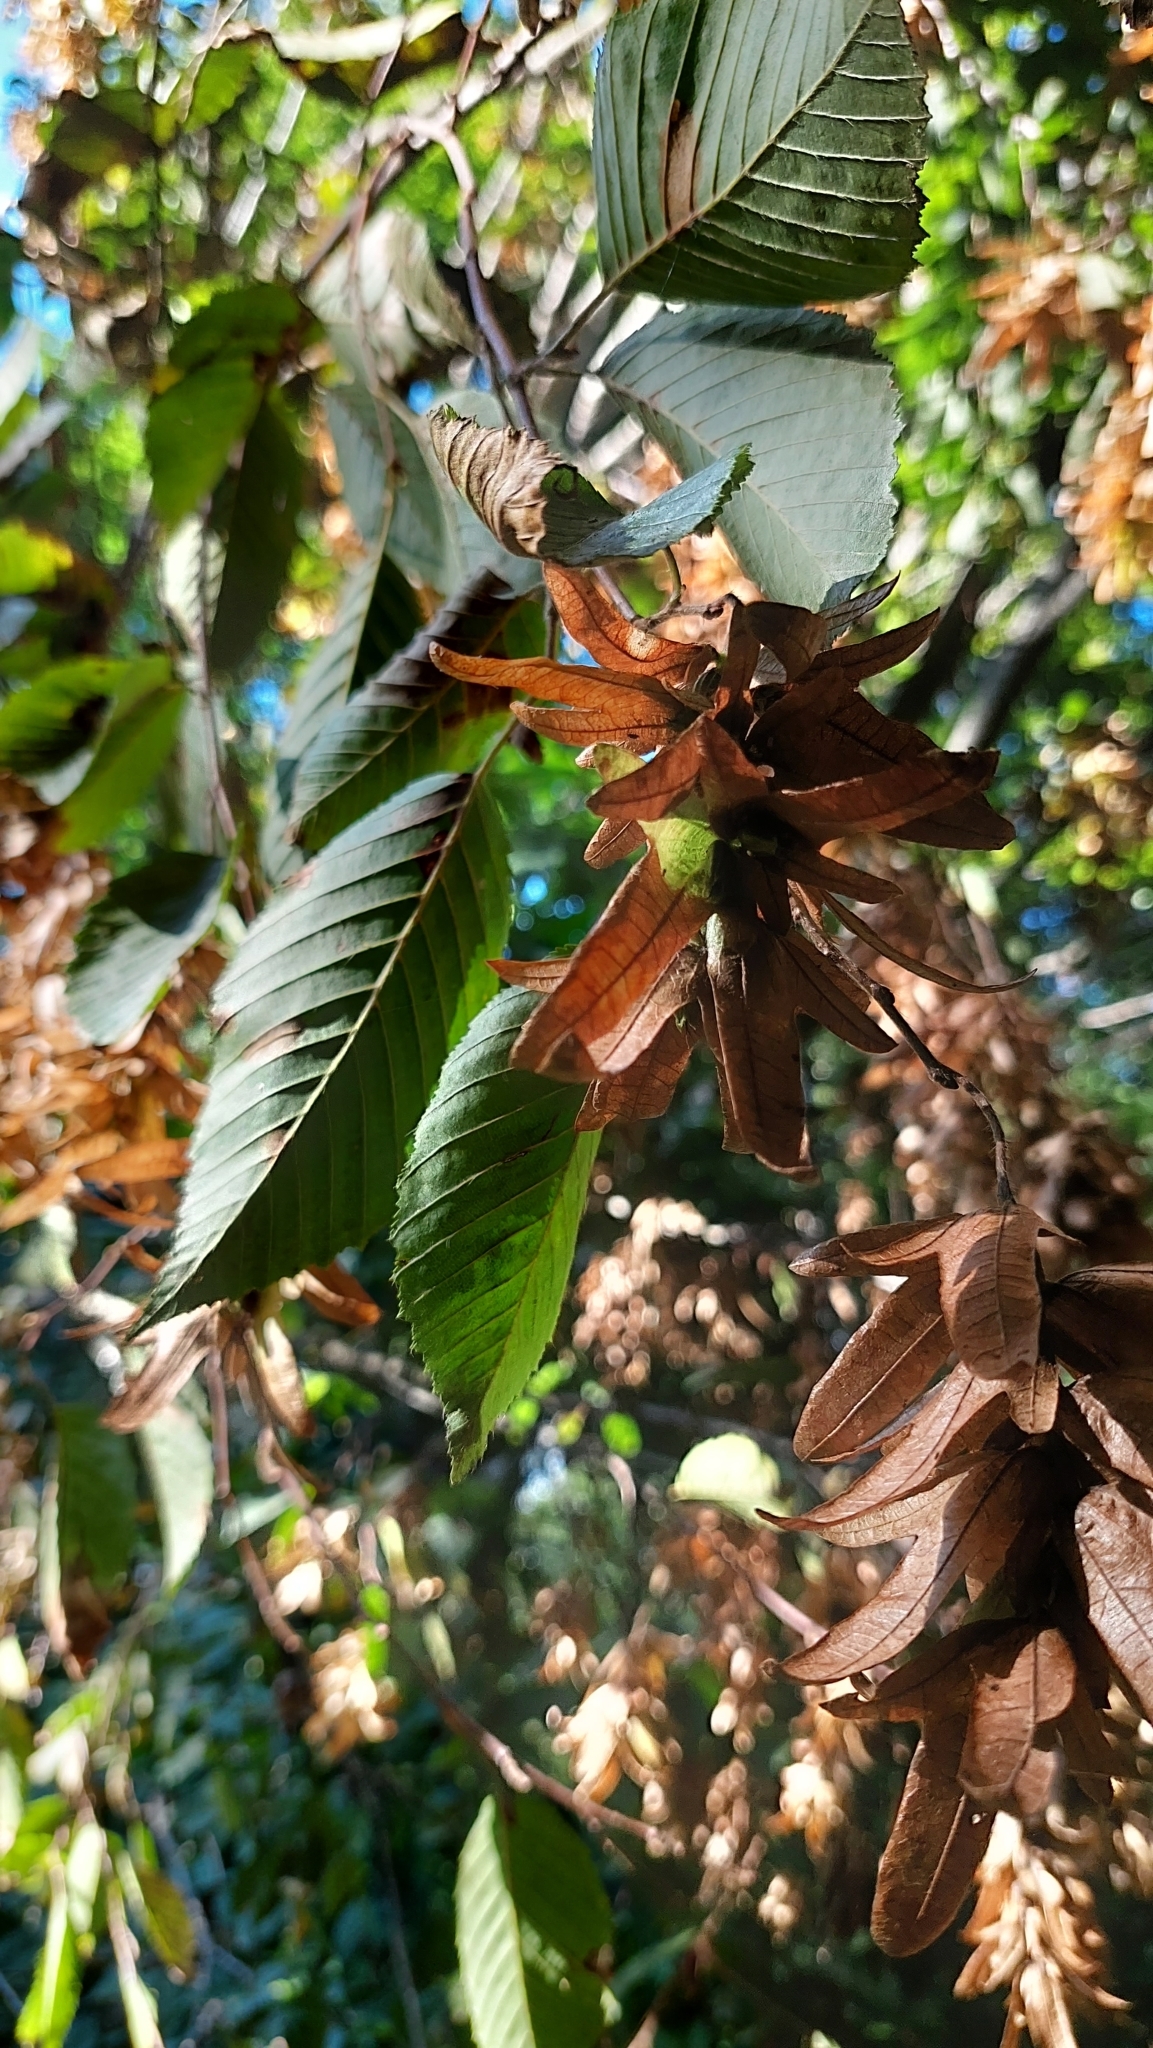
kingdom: Plantae
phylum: Tracheophyta
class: Magnoliopsida
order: Fagales
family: Betulaceae
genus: Carpinus
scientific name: Carpinus betulus
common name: Hornbeam
